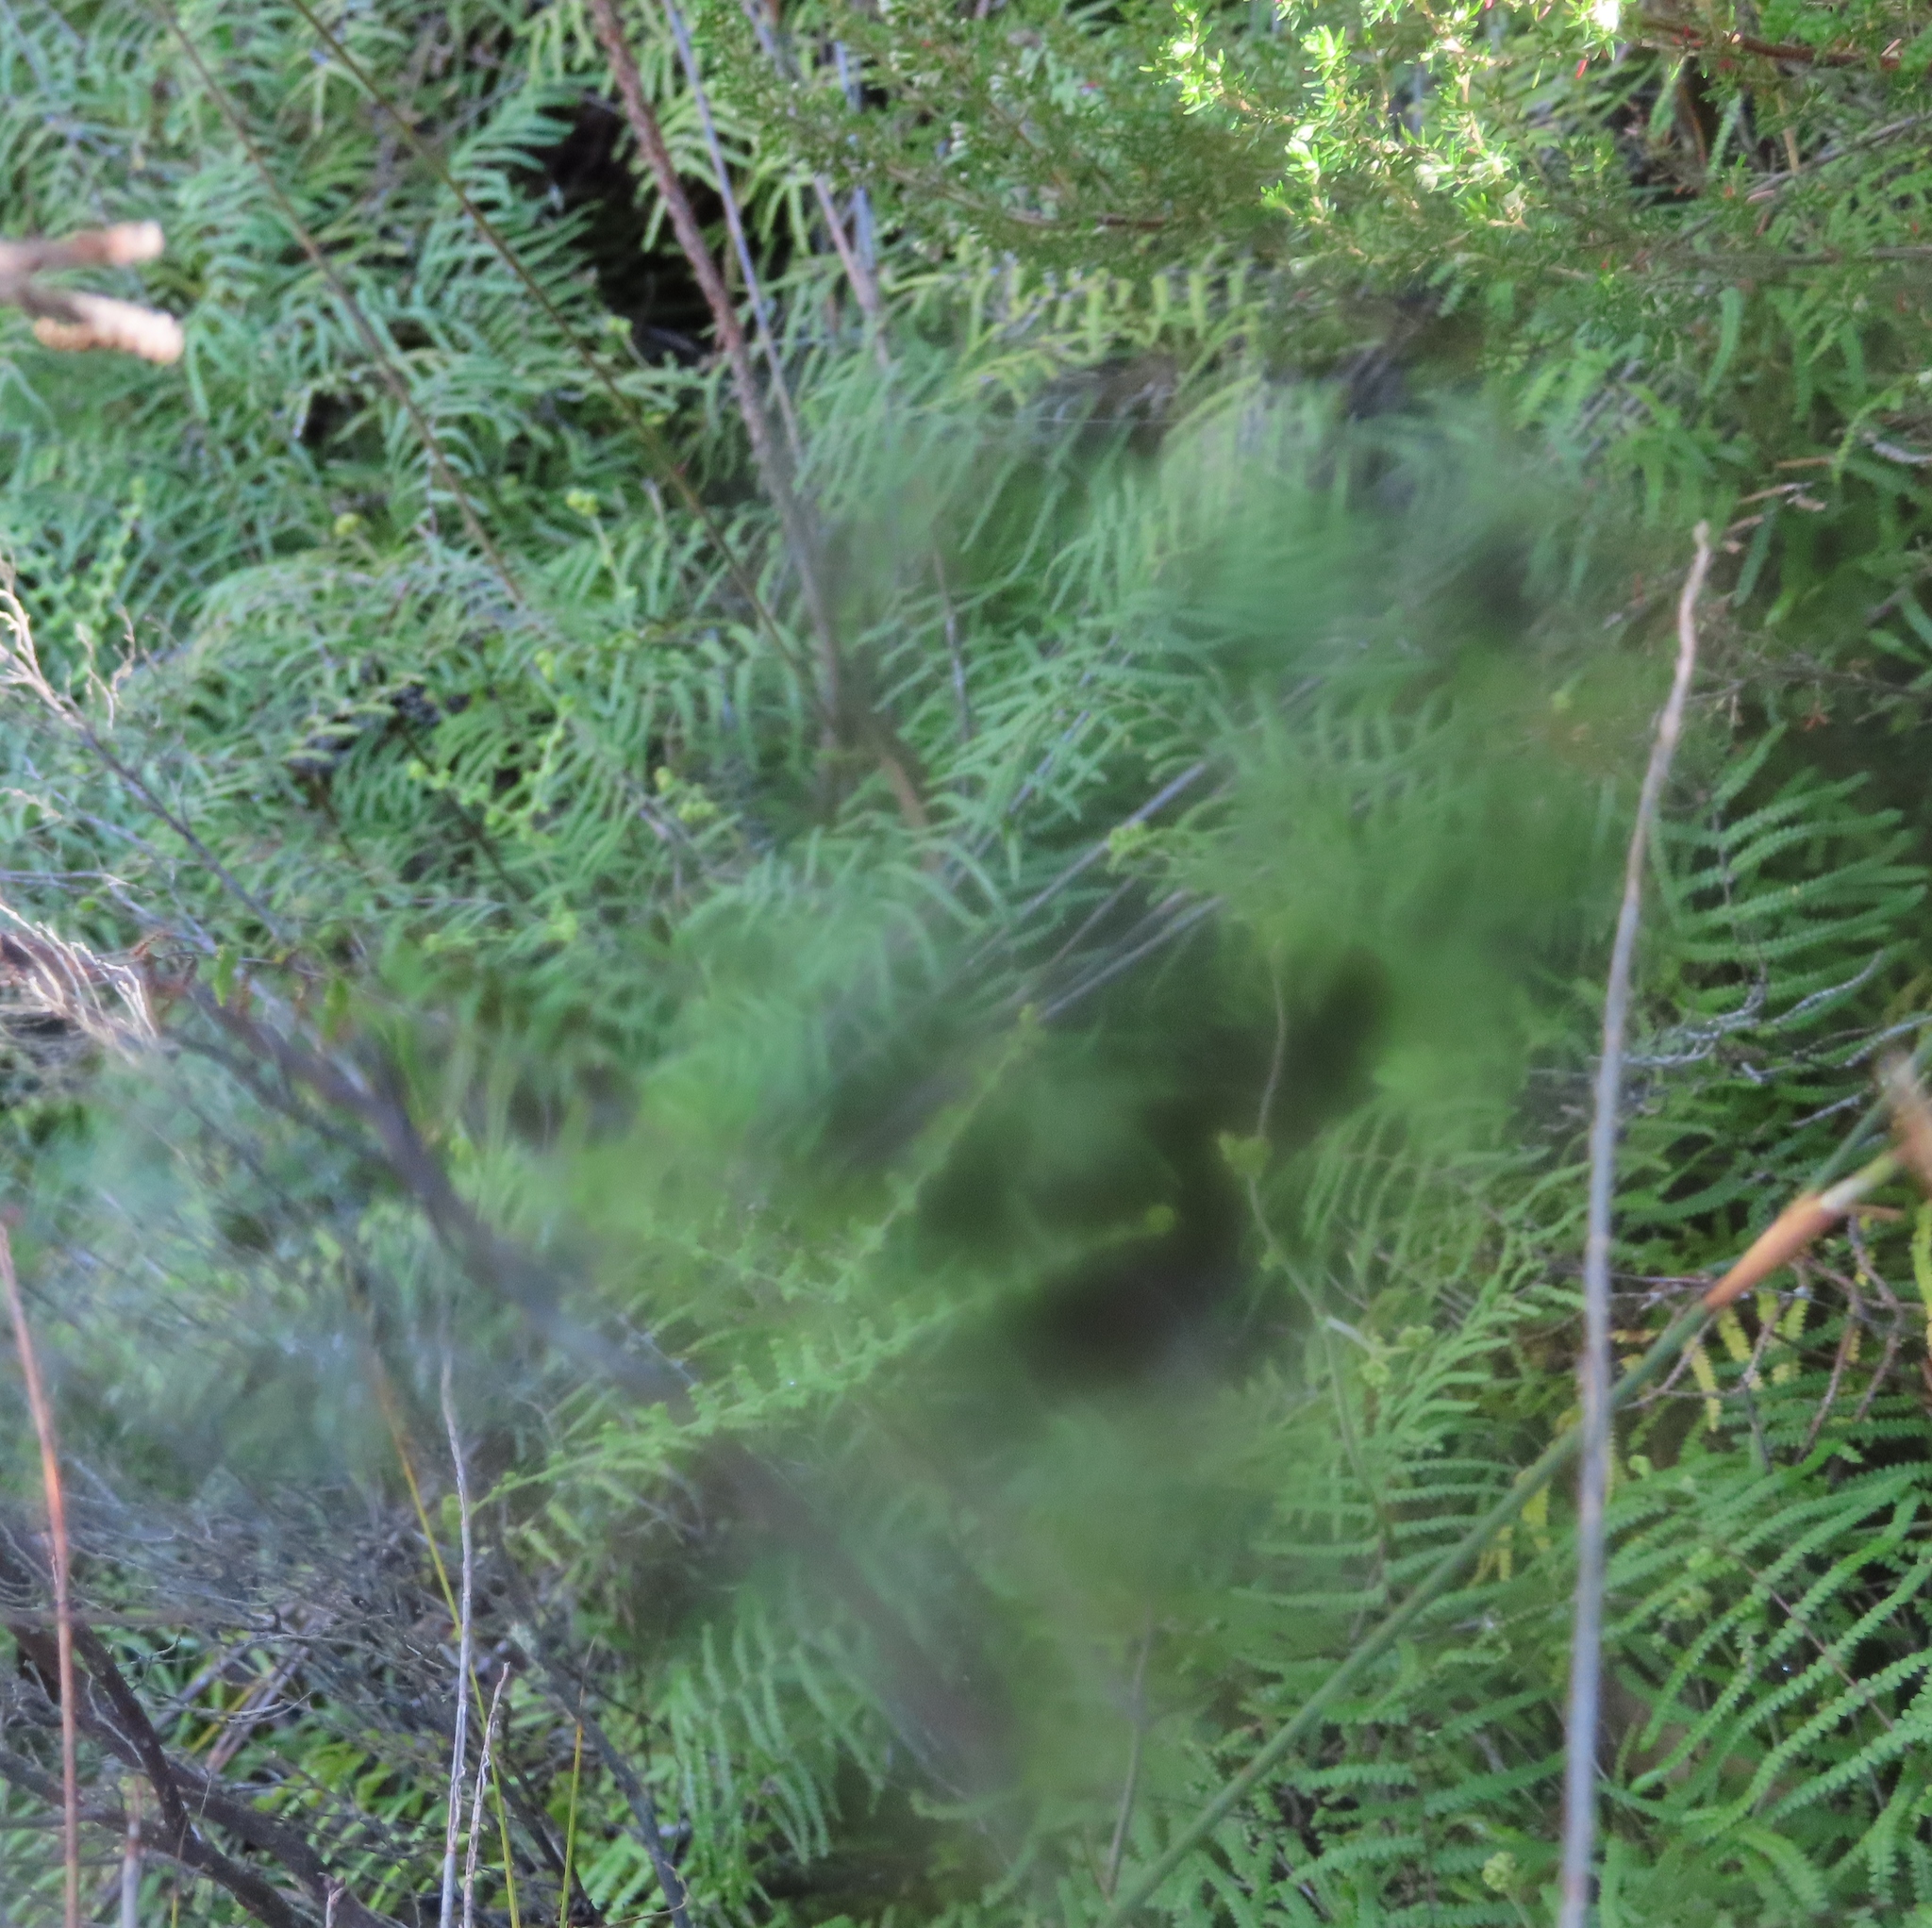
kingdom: Plantae
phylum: Tracheophyta
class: Polypodiopsida
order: Gleicheniales
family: Gleicheniaceae
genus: Gleichenia
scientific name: Gleichenia polypodioides
